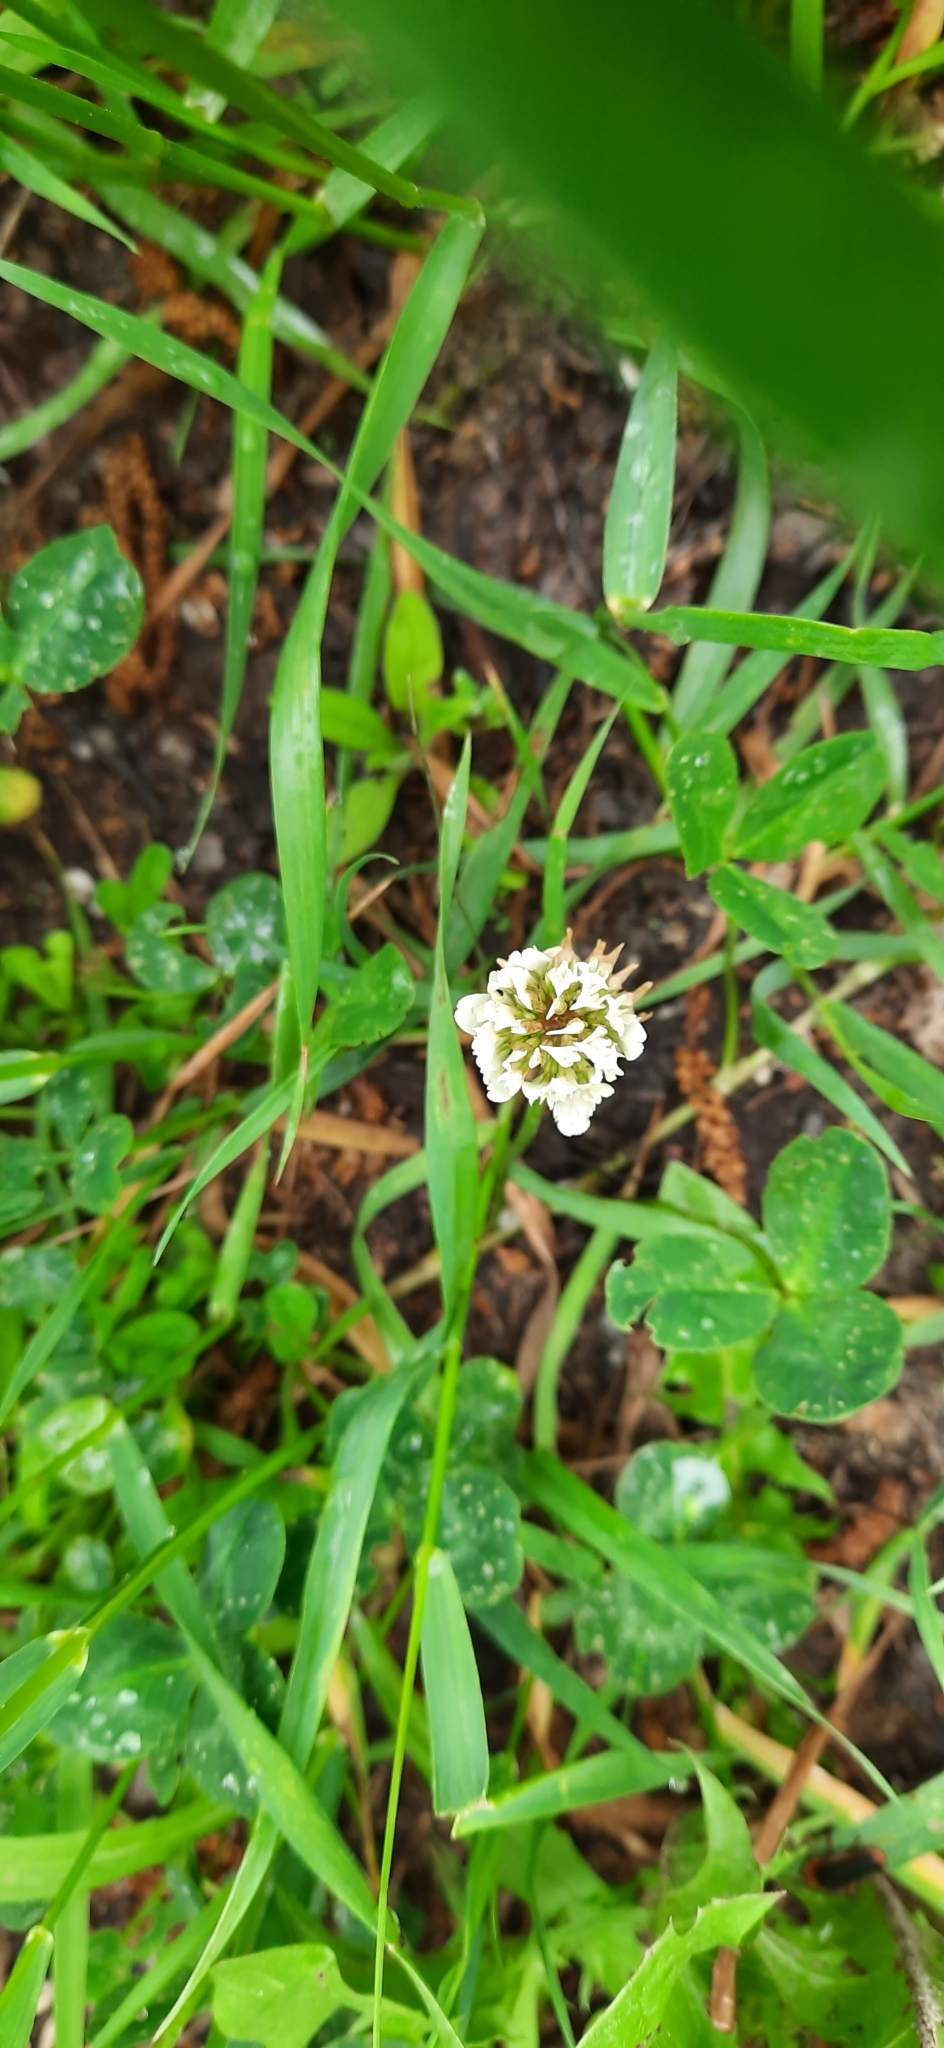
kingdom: Plantae
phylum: Tracheophyta
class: Magnoliopsida
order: Fabales
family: Fabaceae
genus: Trifolium
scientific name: Trifolium repens
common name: White clover
